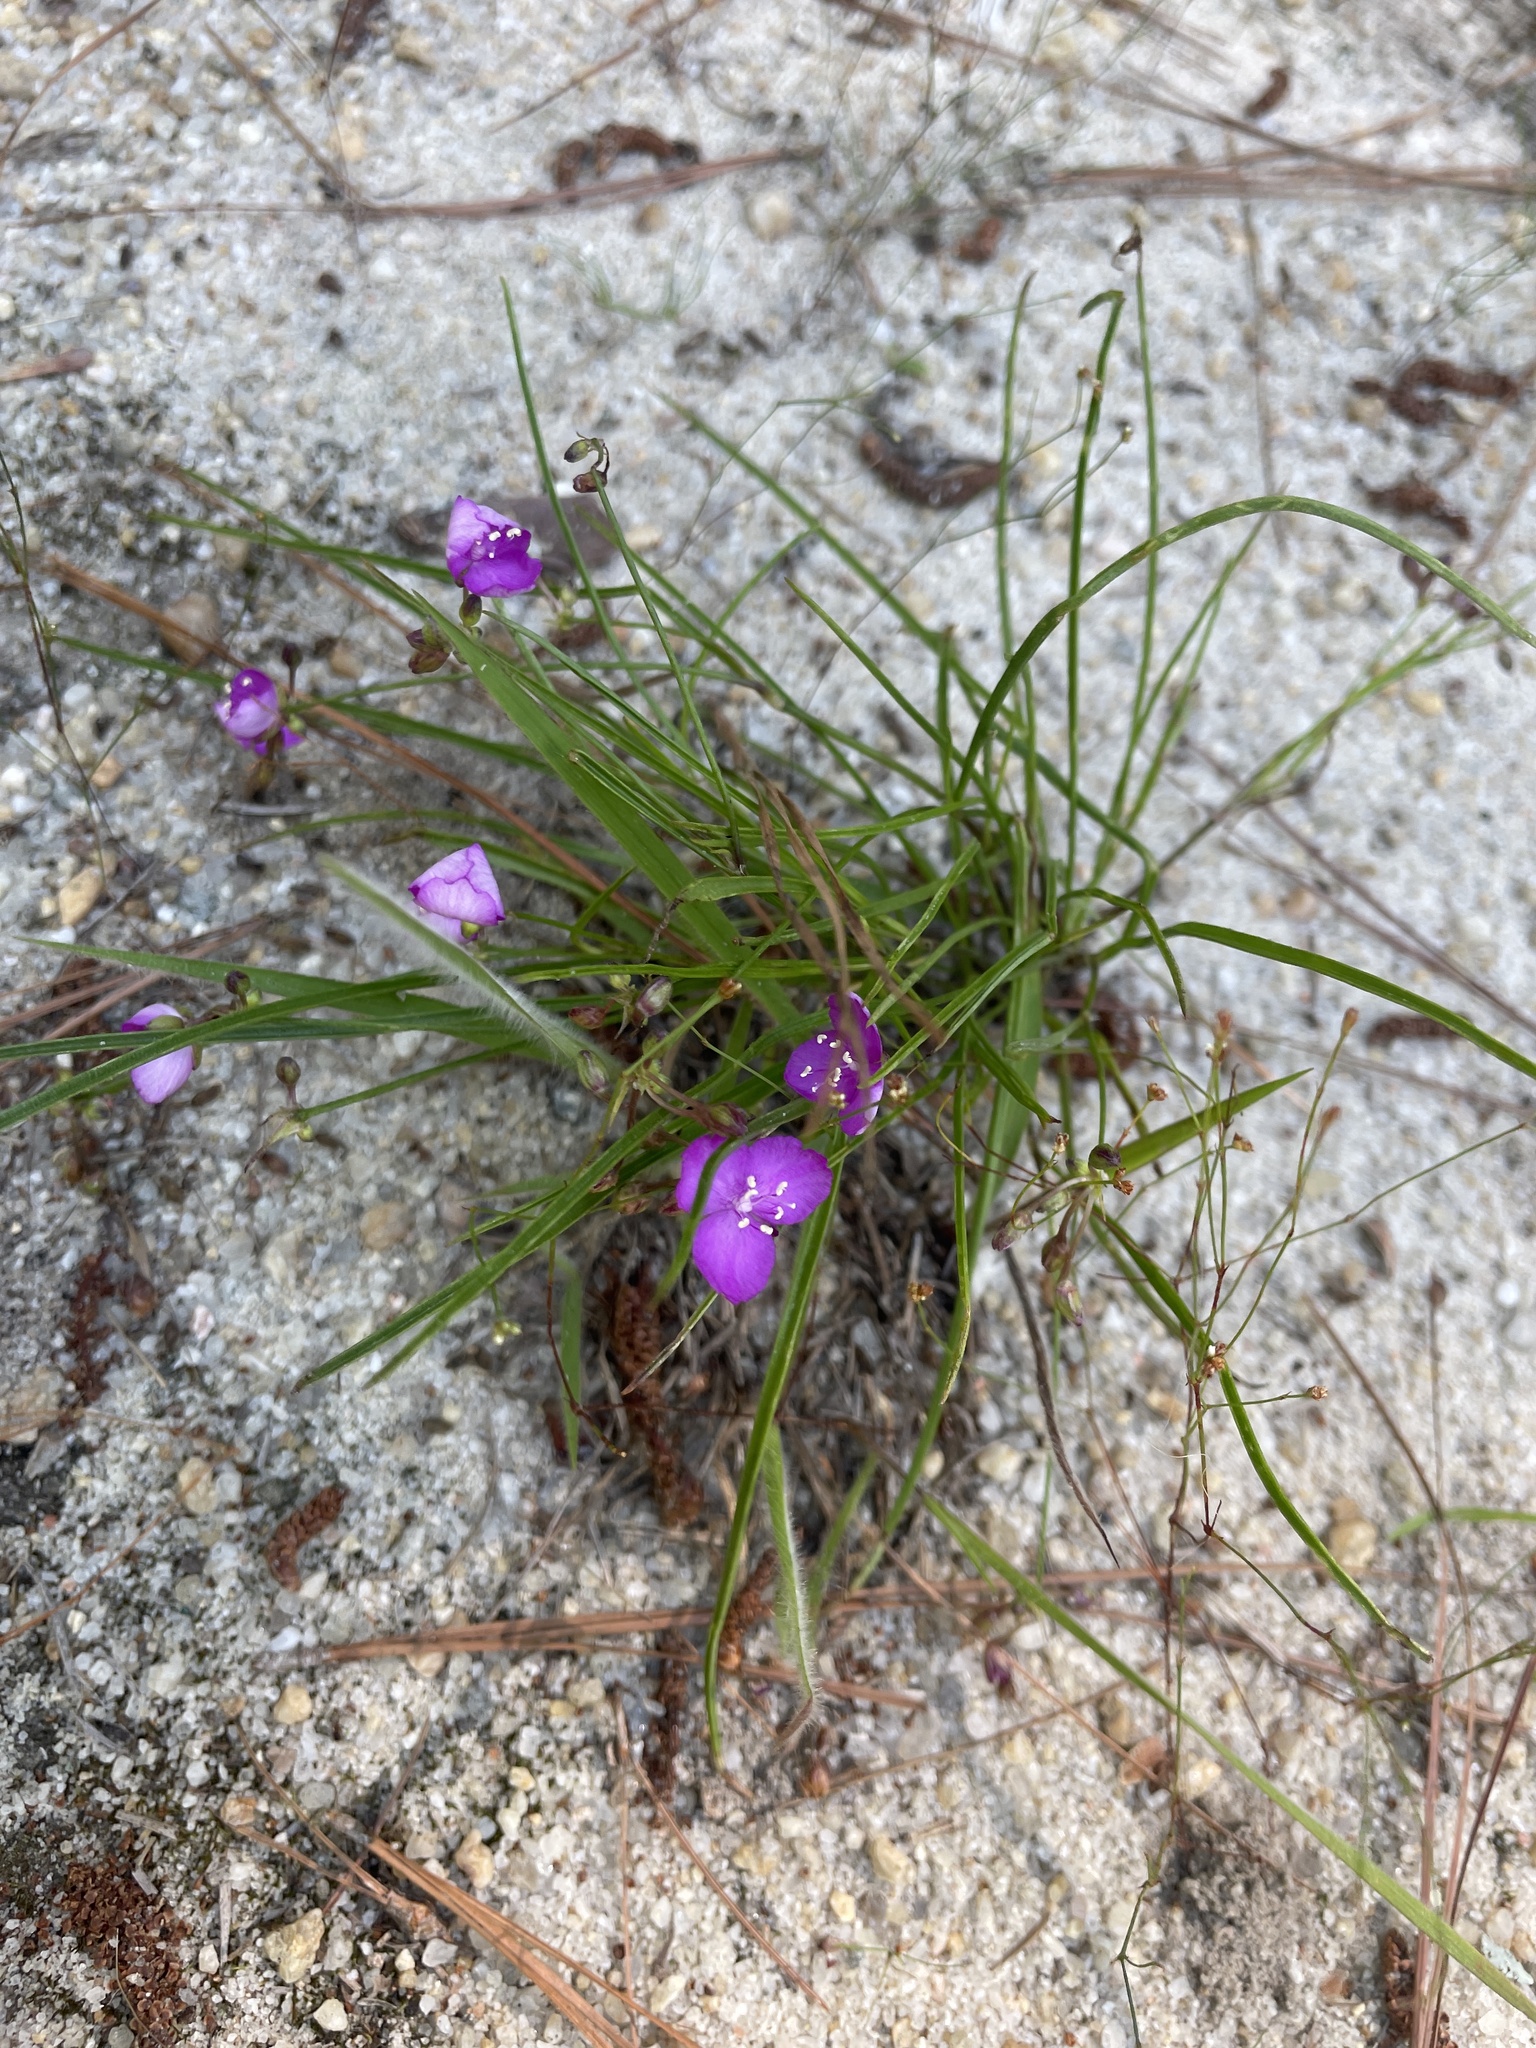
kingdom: Plantae
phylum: Tracheophyta
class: Liliopsida
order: Commelinales
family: Commelinaceae
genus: Callisia
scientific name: Callisia graminea
